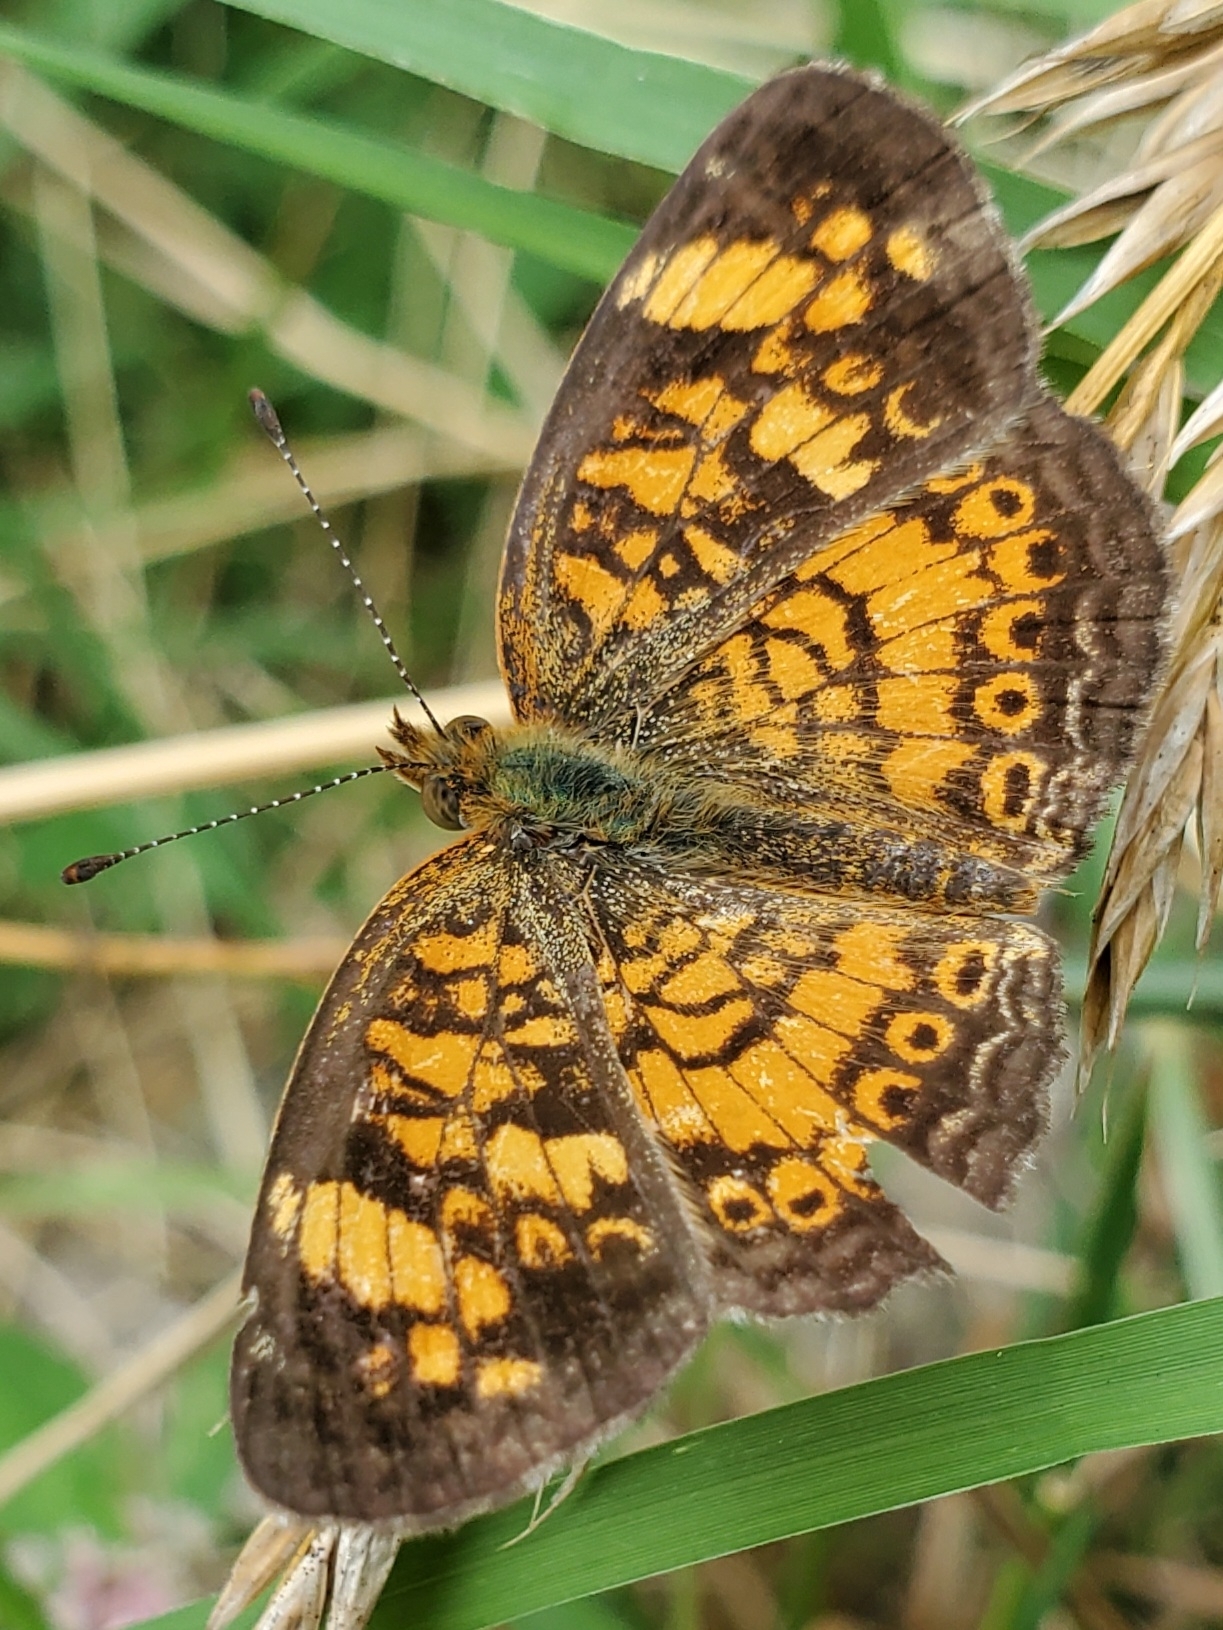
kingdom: Animalia
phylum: Arthropoda
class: Insecta
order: Lepidoptera
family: Nymphalidae
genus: Phyciodes
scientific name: Phyciodes tharos
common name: Pearl crescent
